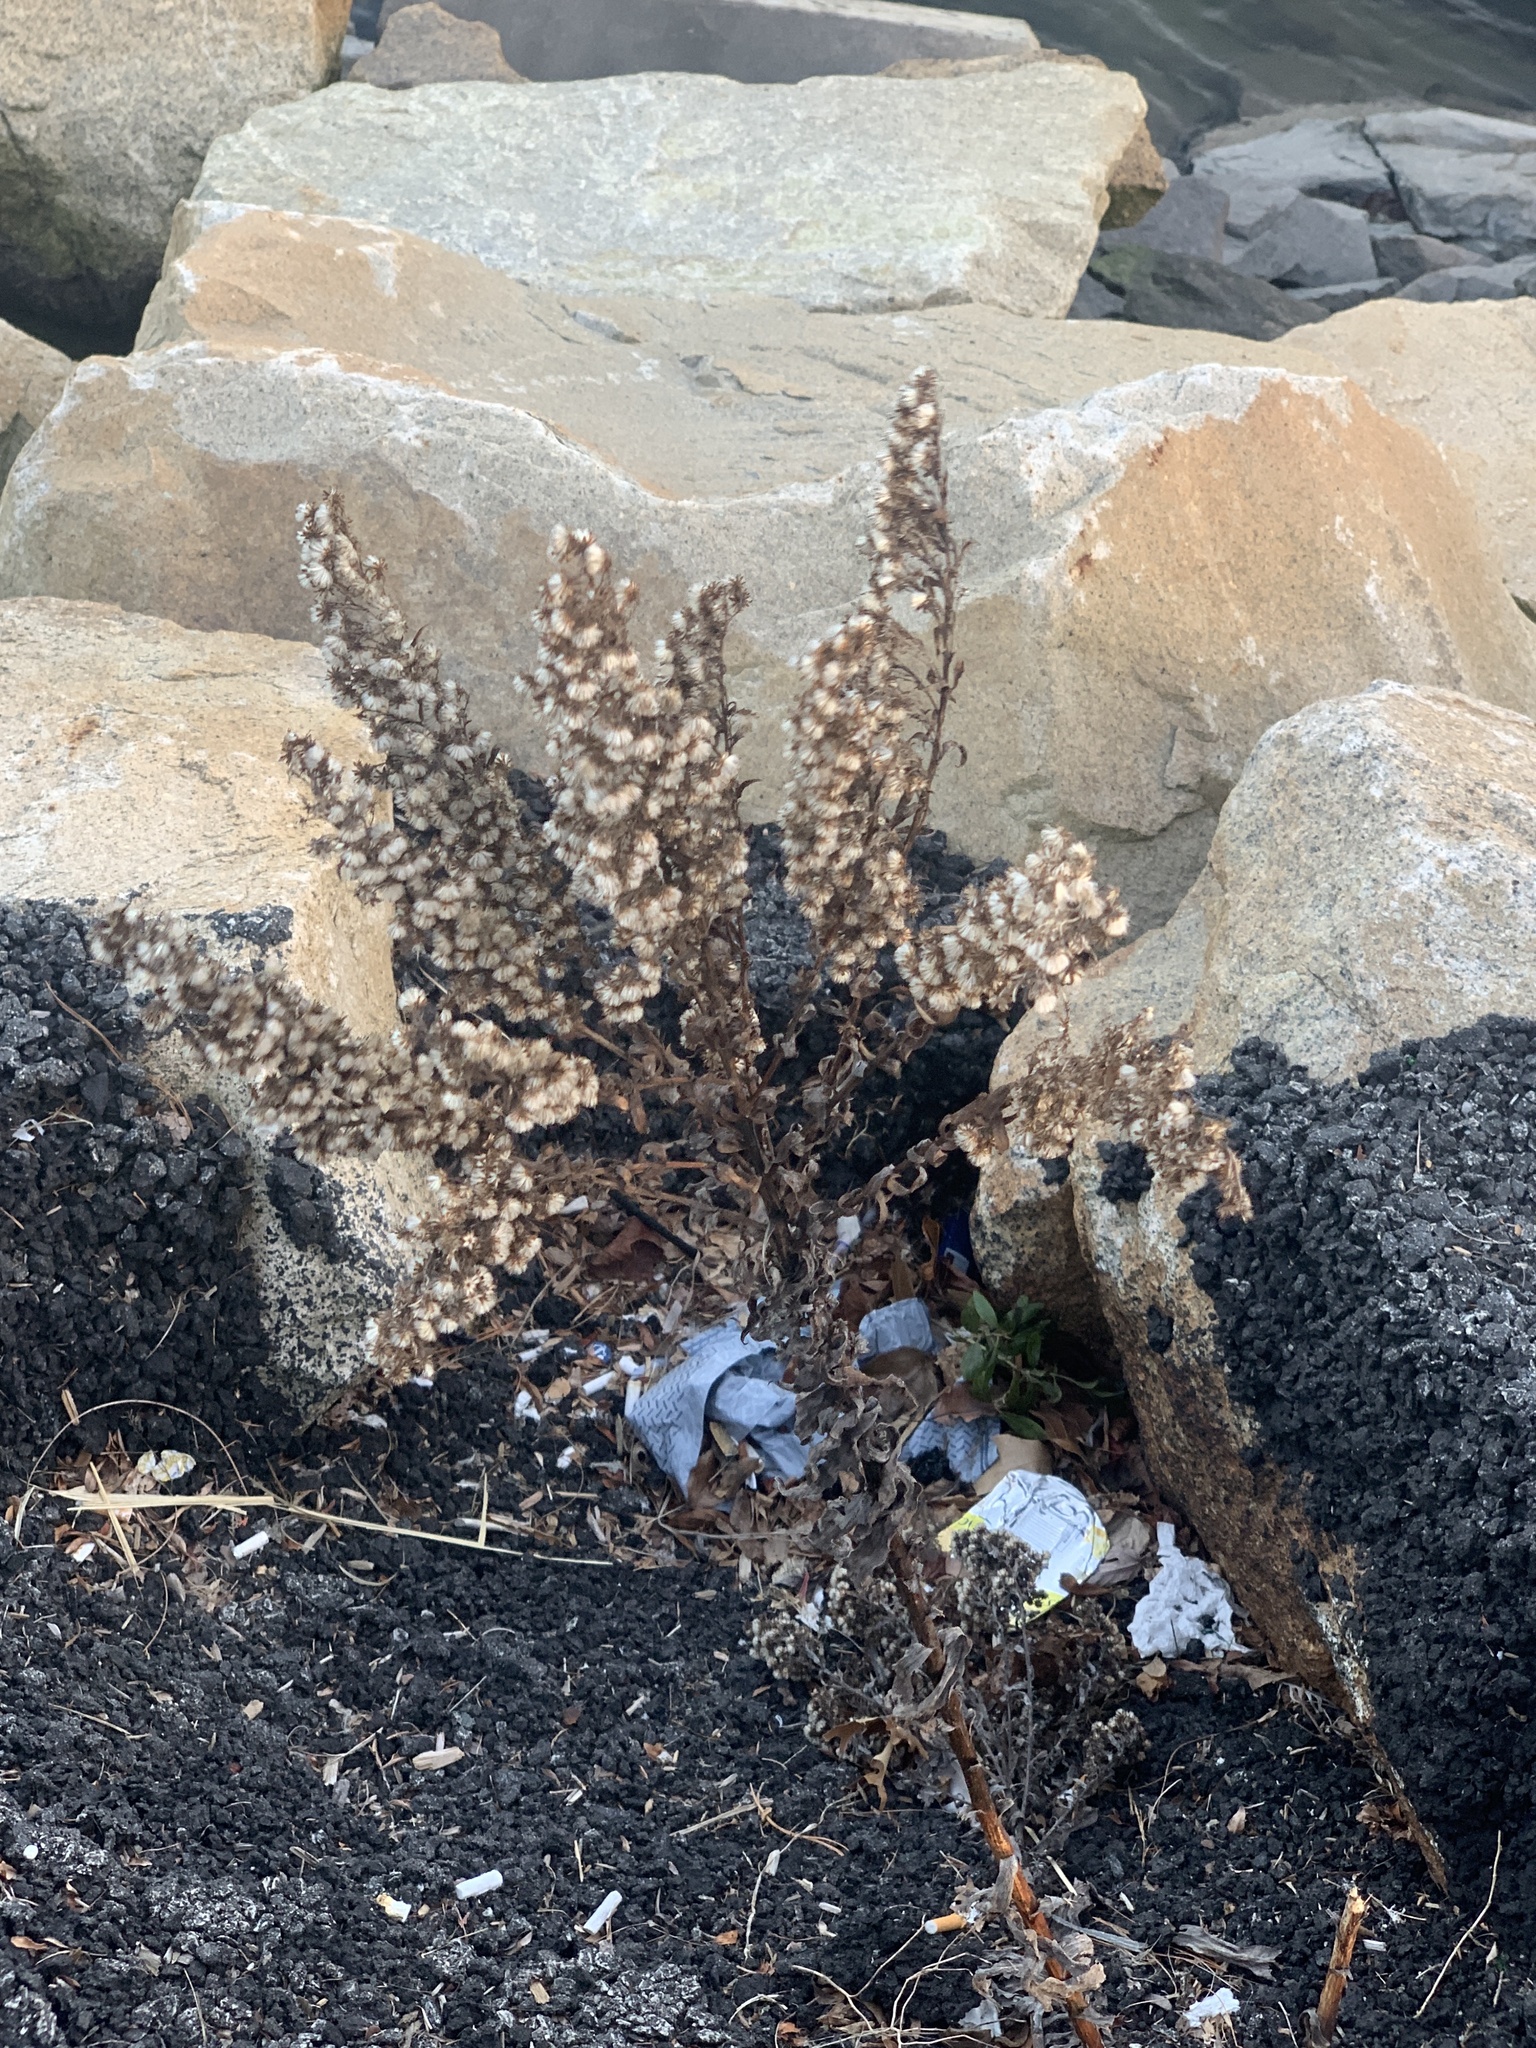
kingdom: Plantae
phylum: Tracheophyta
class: Magnoliopsida
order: Asterales
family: Asteraceae
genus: Solidago
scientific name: Solidago sempervirens
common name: Salt-marsh goldenrod
